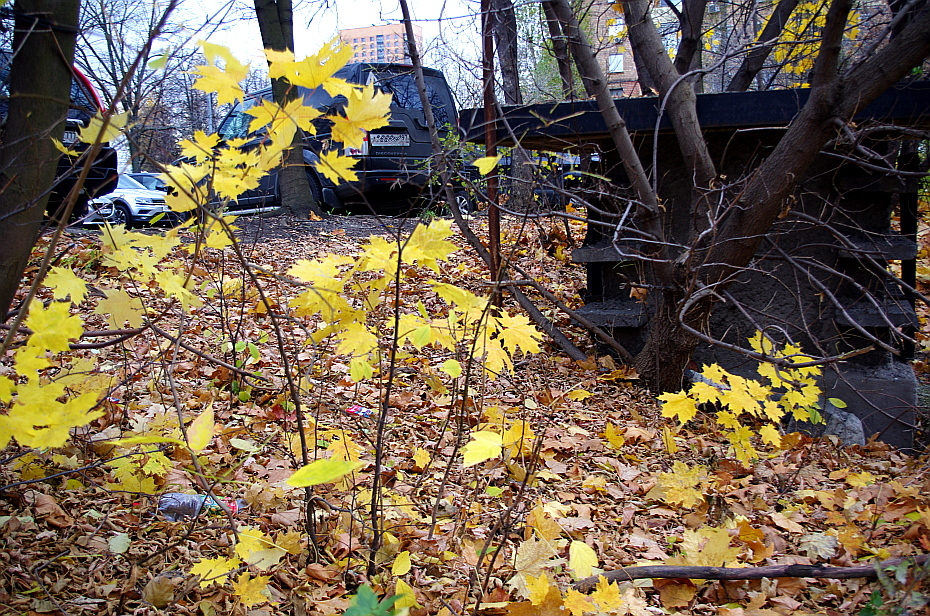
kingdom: Plantae
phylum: Tracheophyta
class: Magnoliopsida
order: Sapindales
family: Sapindaceae
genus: Acer
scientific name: Acer platanoides
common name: Norway maple
